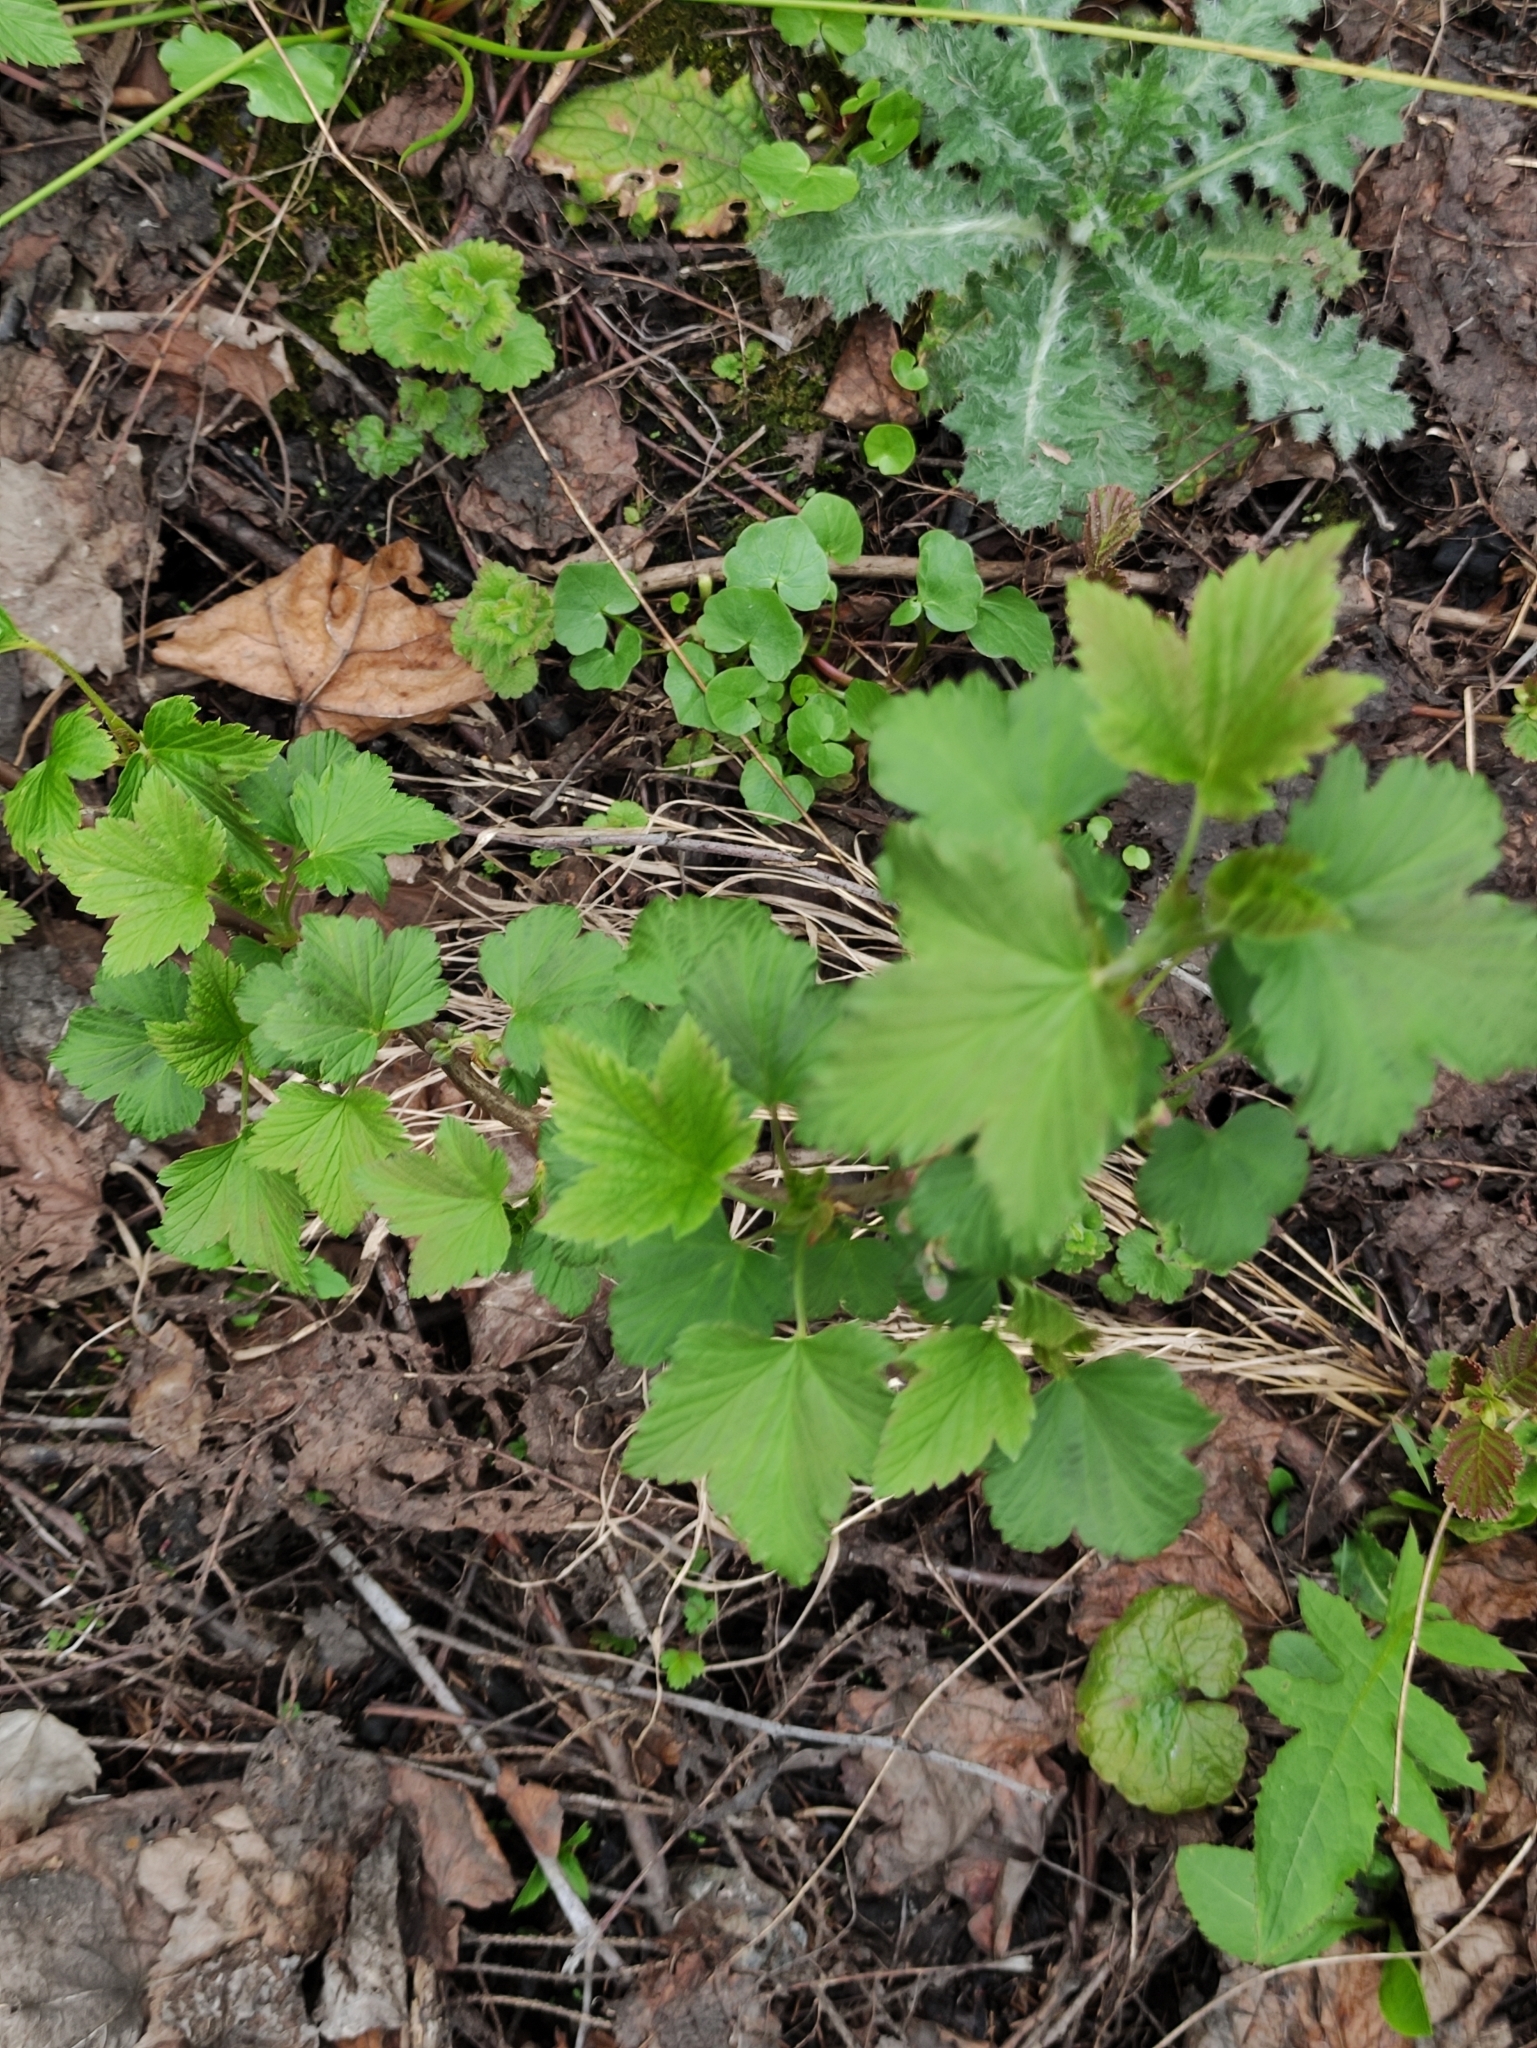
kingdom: Plantae
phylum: Tracheophyta
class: Magnoliopsida
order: Saxifragales
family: Grossulariaceae
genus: Ribes
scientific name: Ribes nigrum
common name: Black currant
